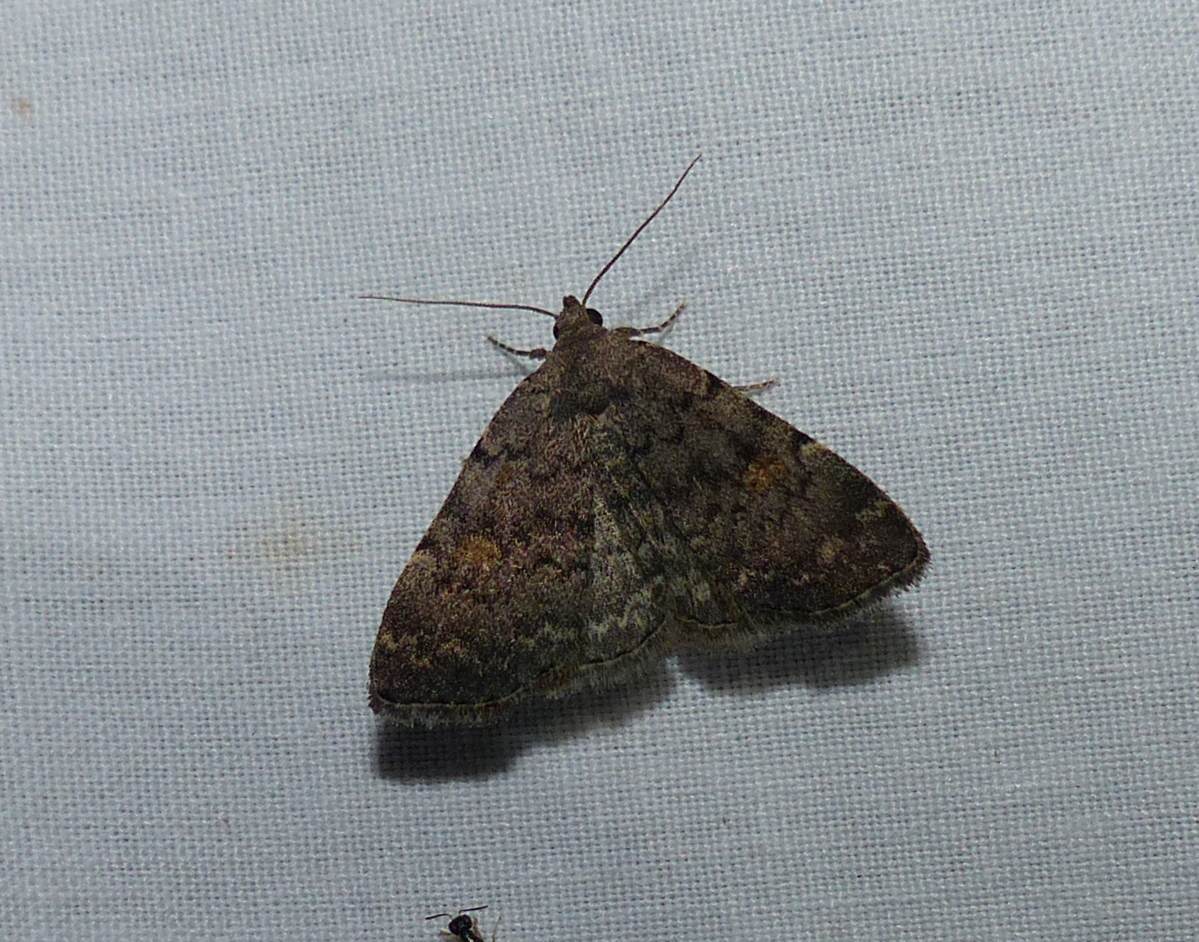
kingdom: Animalia
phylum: Arthropoda
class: Insecta
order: Lepidoptera
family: Erebidae
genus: Idia
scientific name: Idia aemula
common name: Common idia moth
